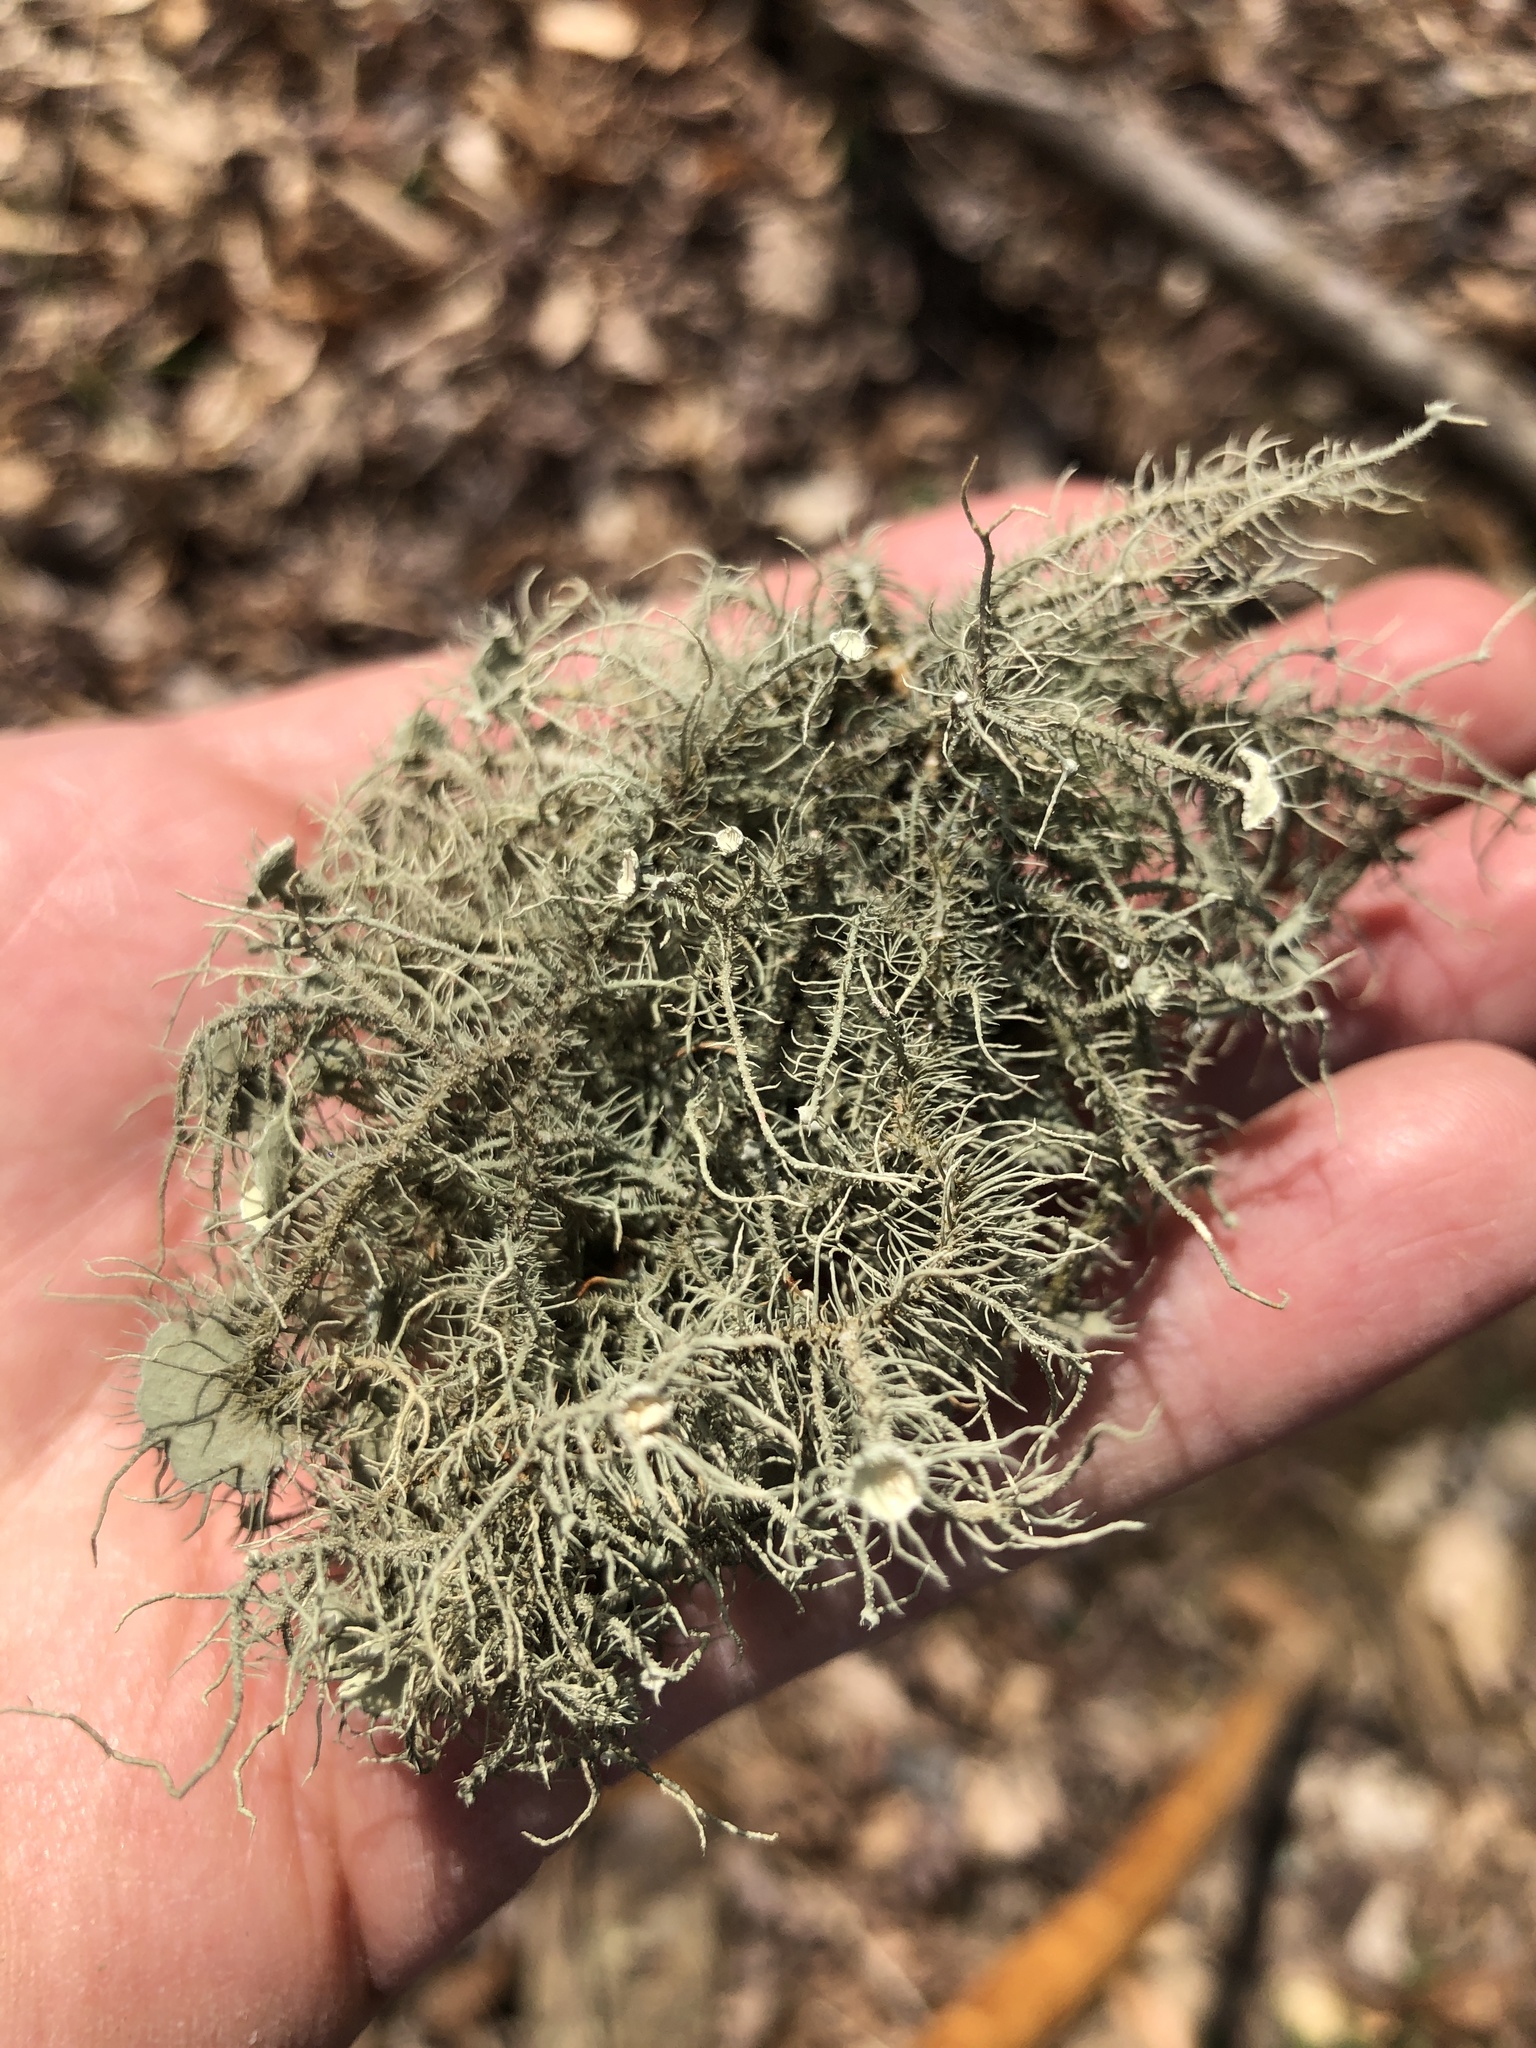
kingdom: Fungi
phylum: Ascomycota
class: Lecanoromycetes
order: Lecanorales
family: Parmeliaceae
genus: Usnea
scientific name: Usnea
